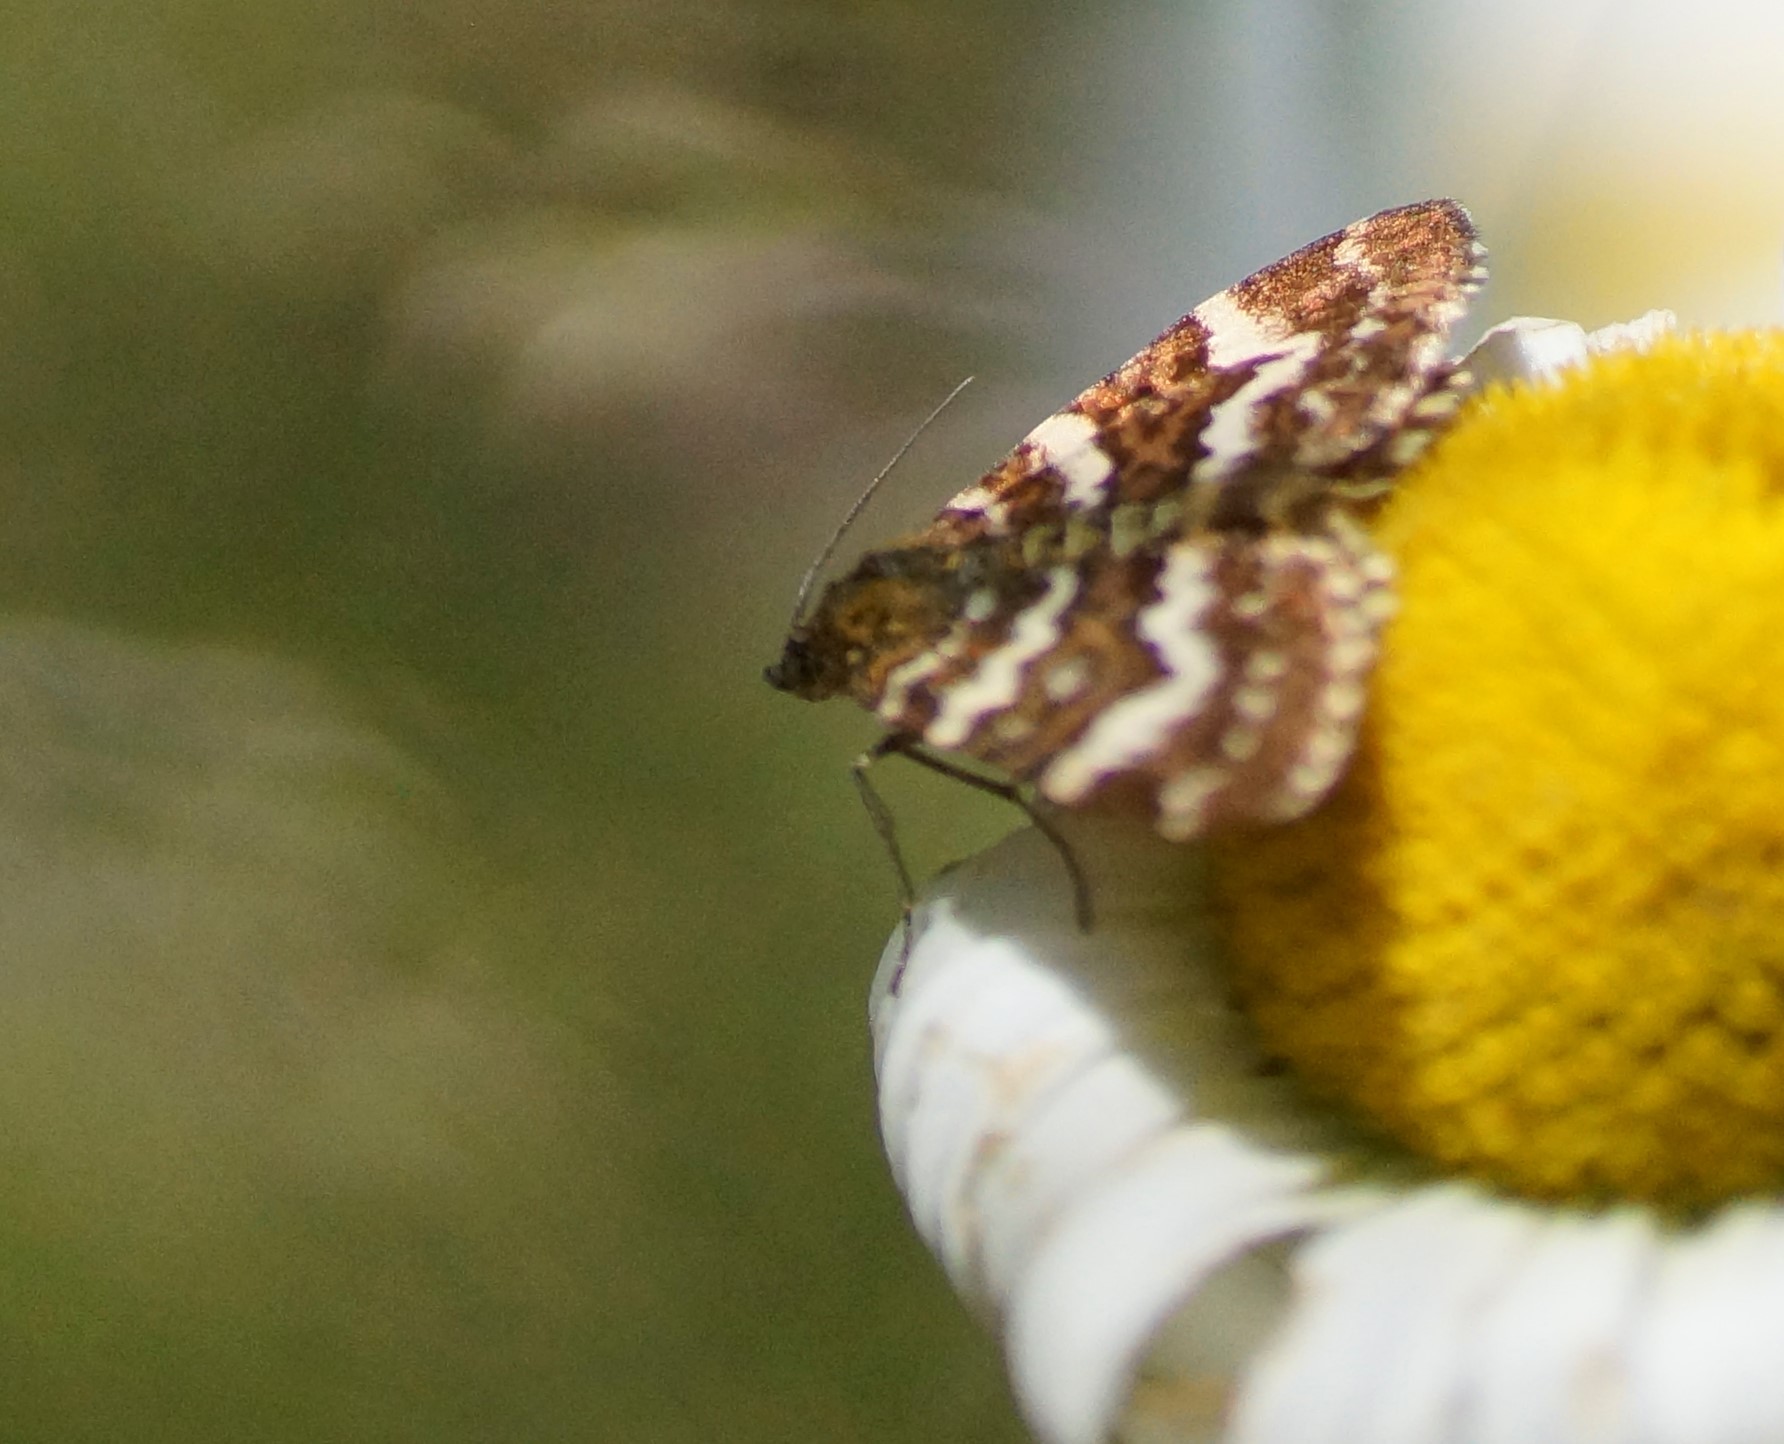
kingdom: Animalia
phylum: Arthropoda
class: Insecta
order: Lepidoptera
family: Geometridae
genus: Chrysolarentia
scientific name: Chrysolarentia polycarpa
